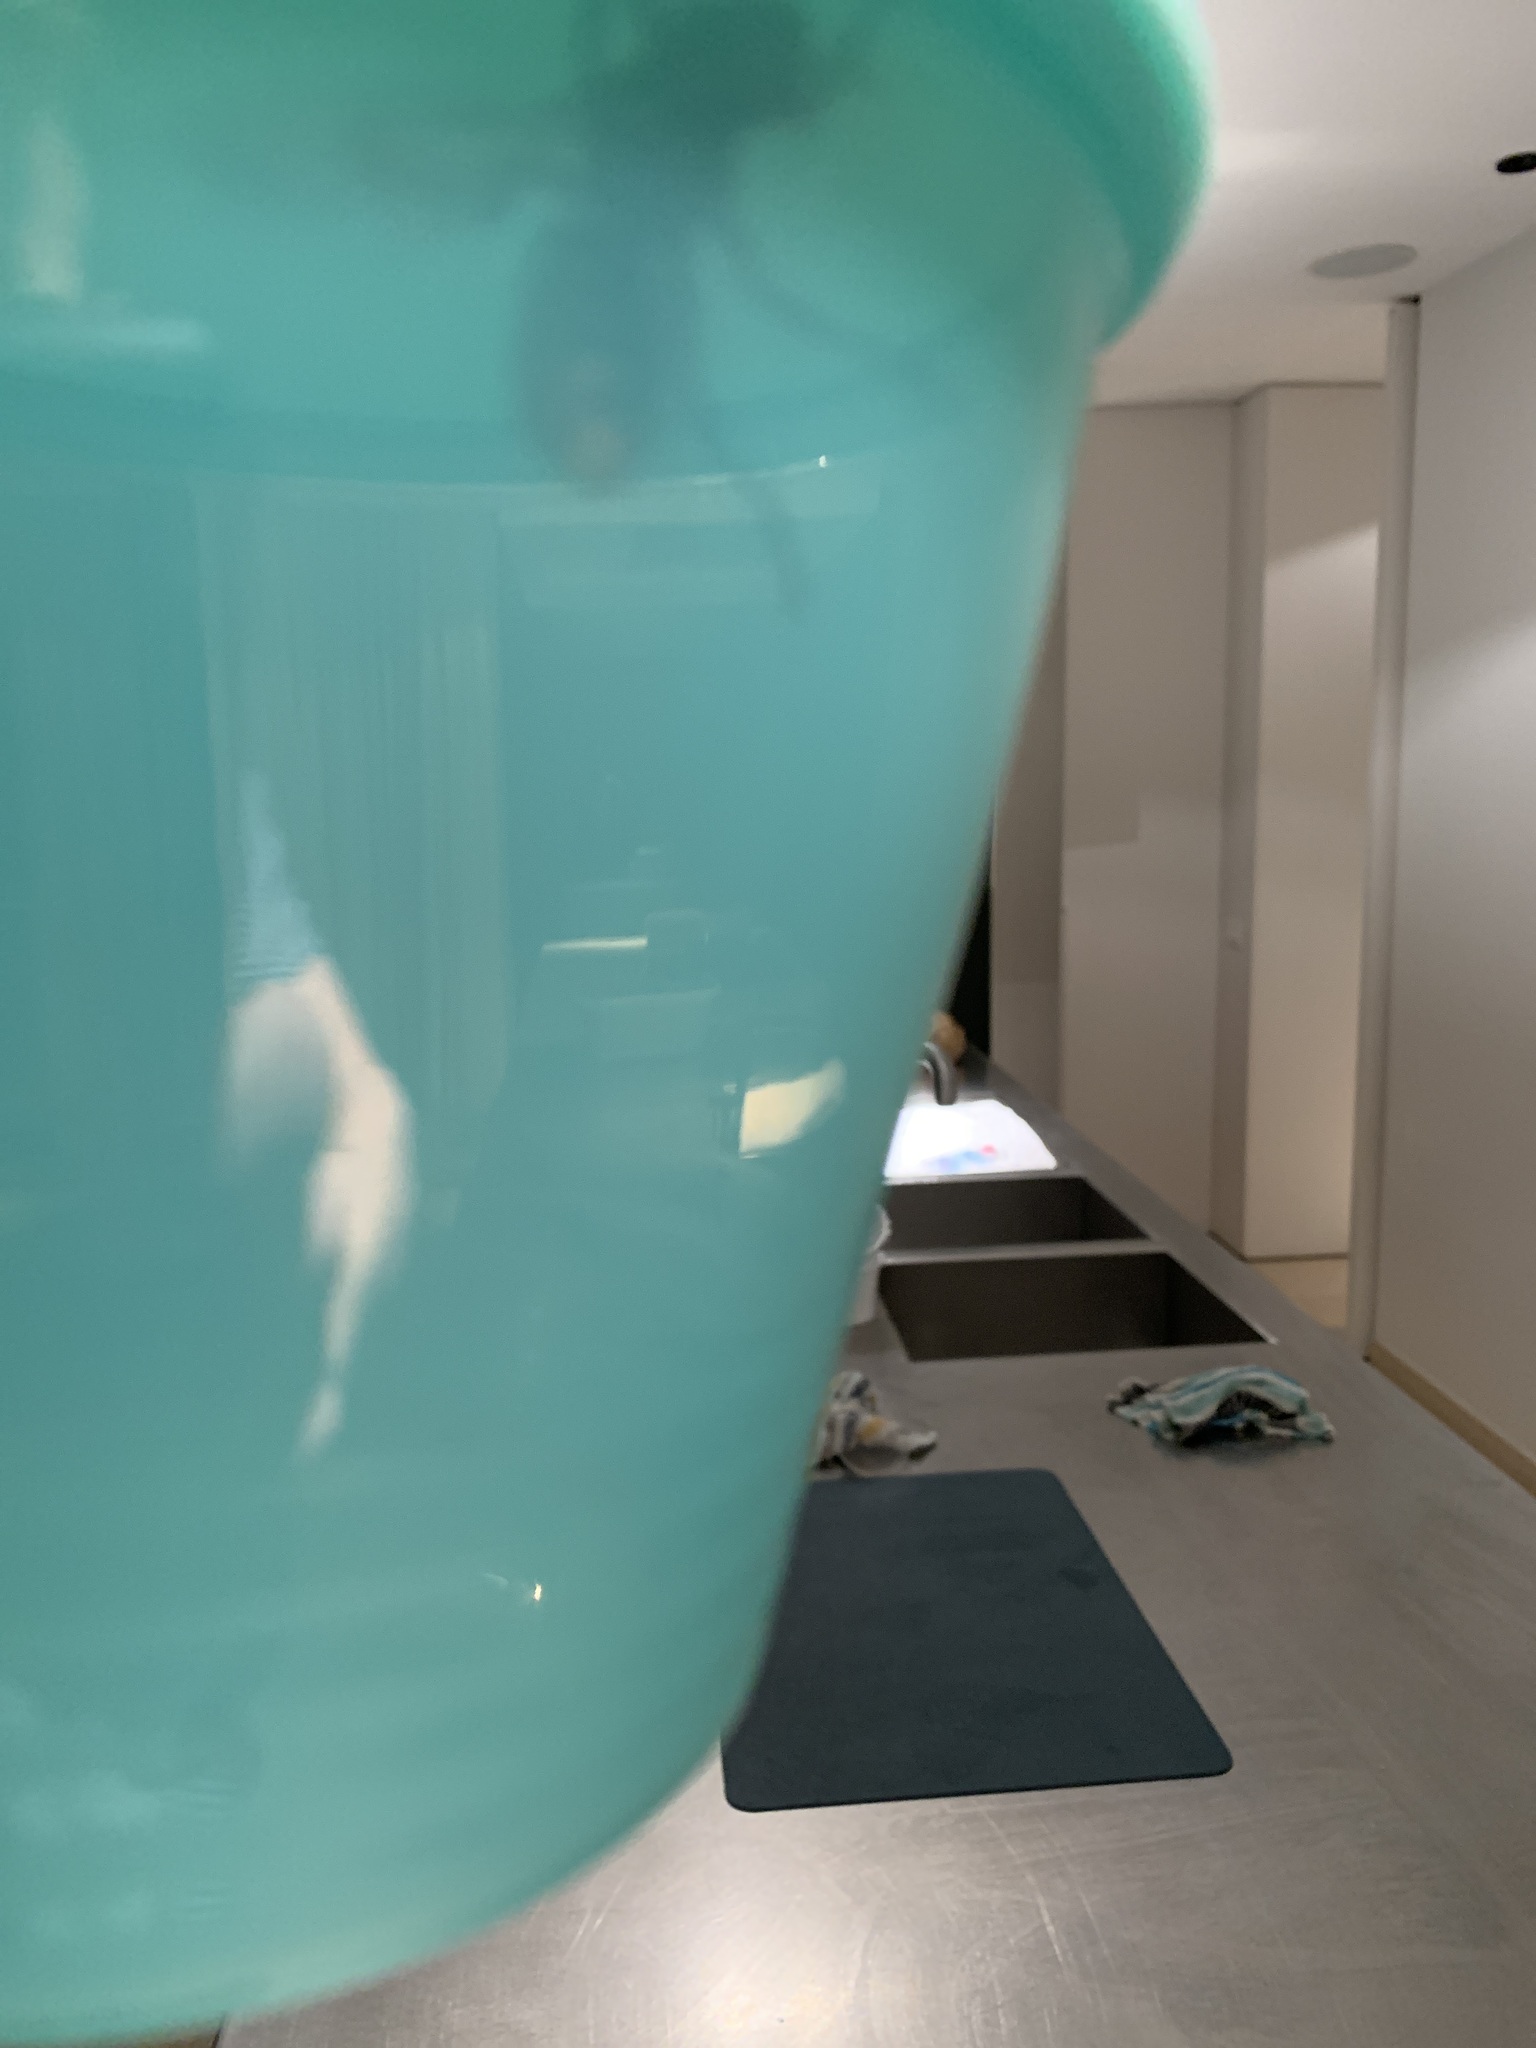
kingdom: Animalia
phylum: Arthropoda
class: Insecta
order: Hymenoptera
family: Vespidae
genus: Vespa
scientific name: Vespa crabro
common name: Hornet
